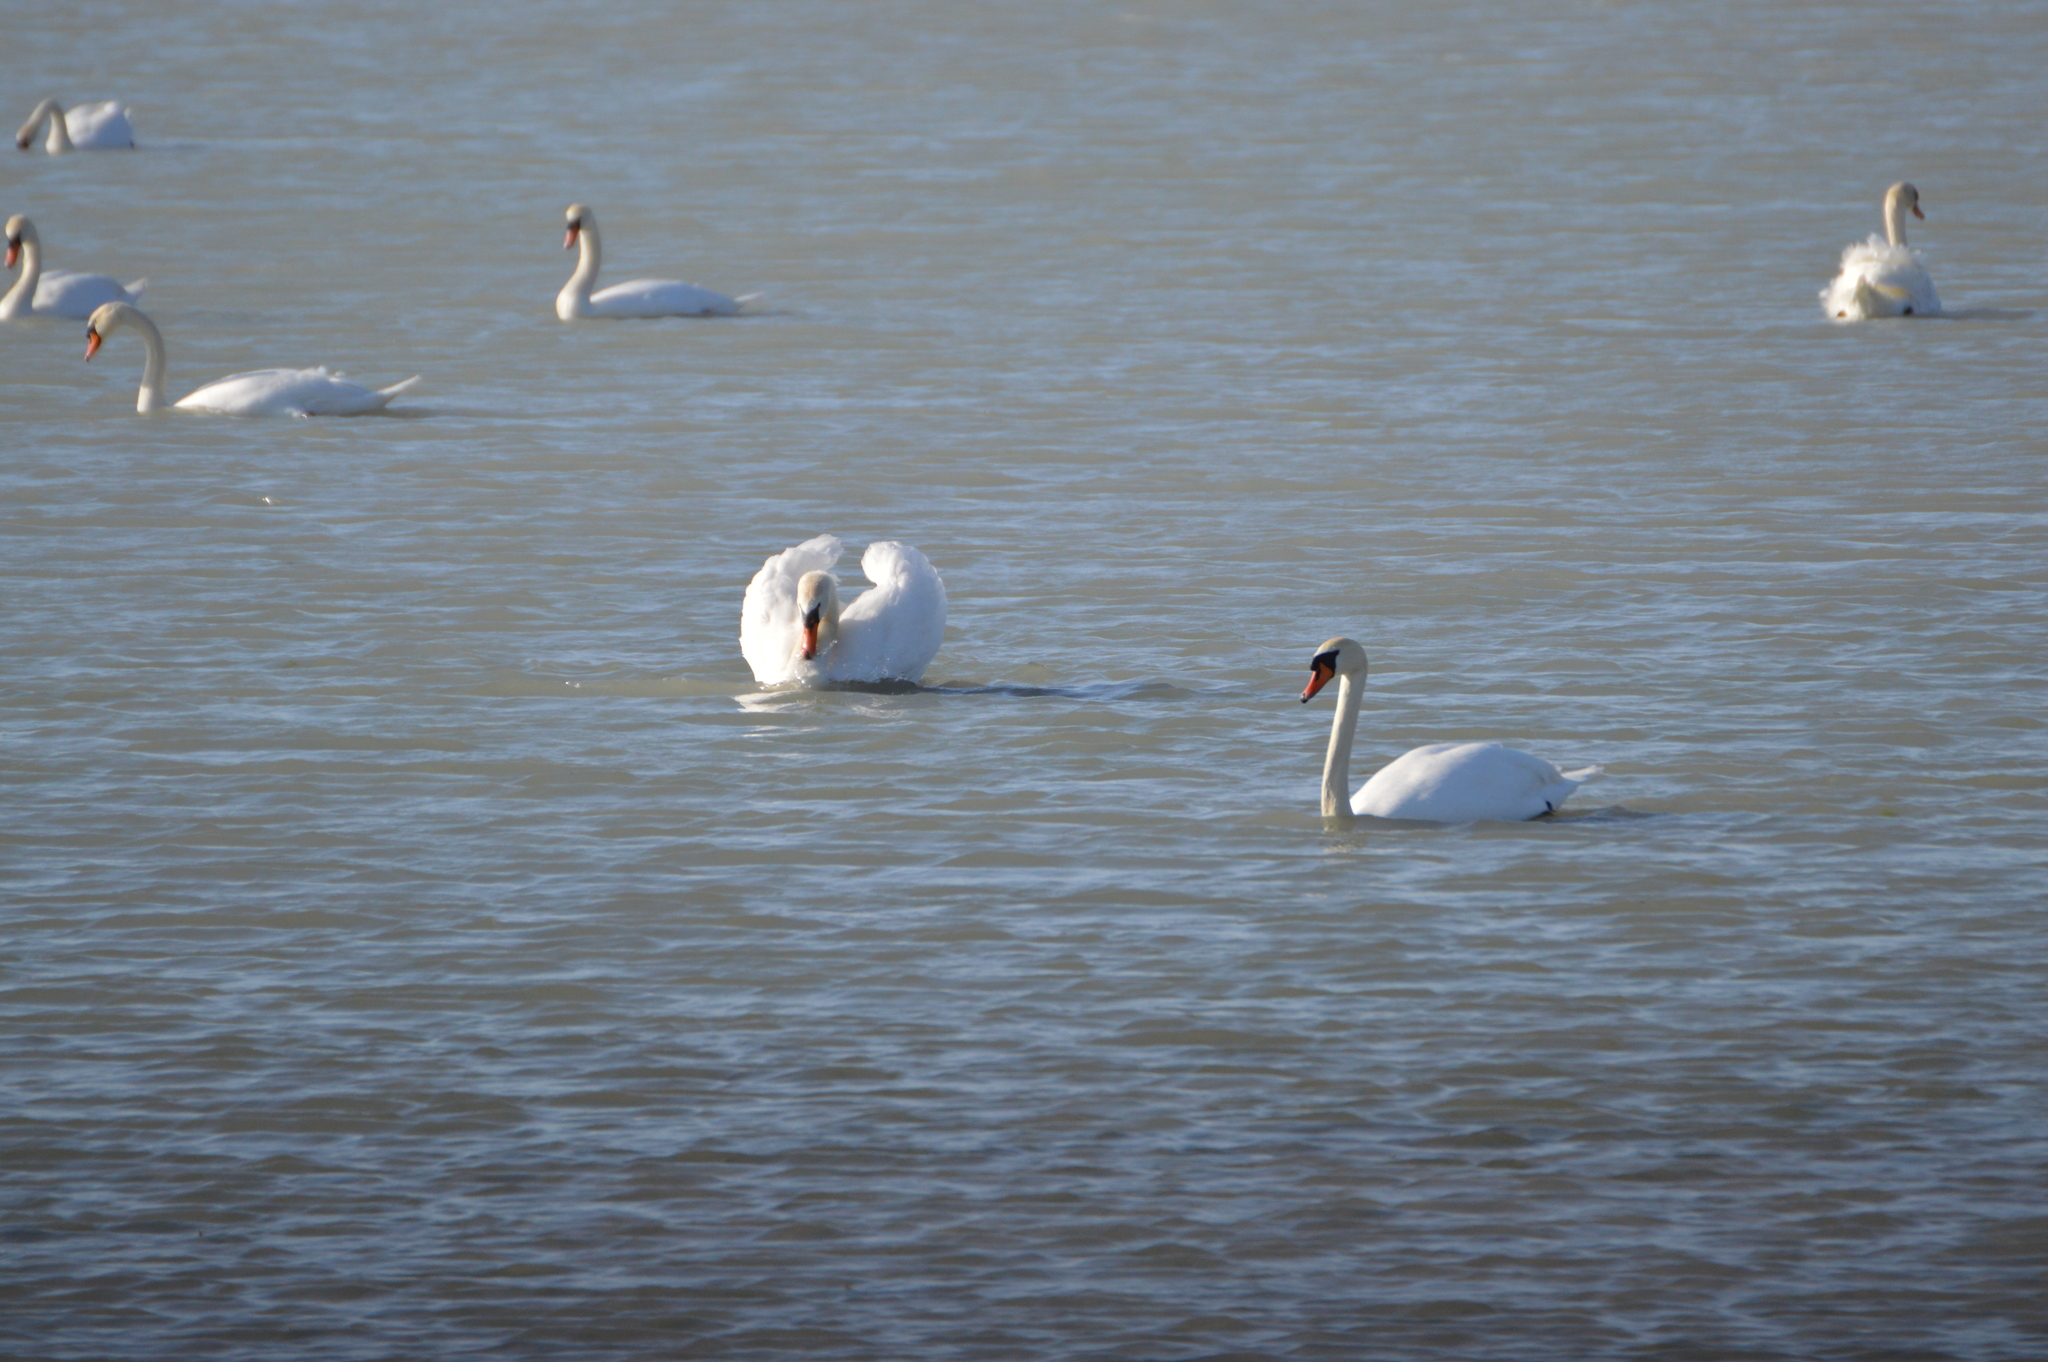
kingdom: Animalia
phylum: Chordata
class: Aves
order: Anseriformes
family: Anatidae
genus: Cygnus
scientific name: Cygnus olor
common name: Mute swan
